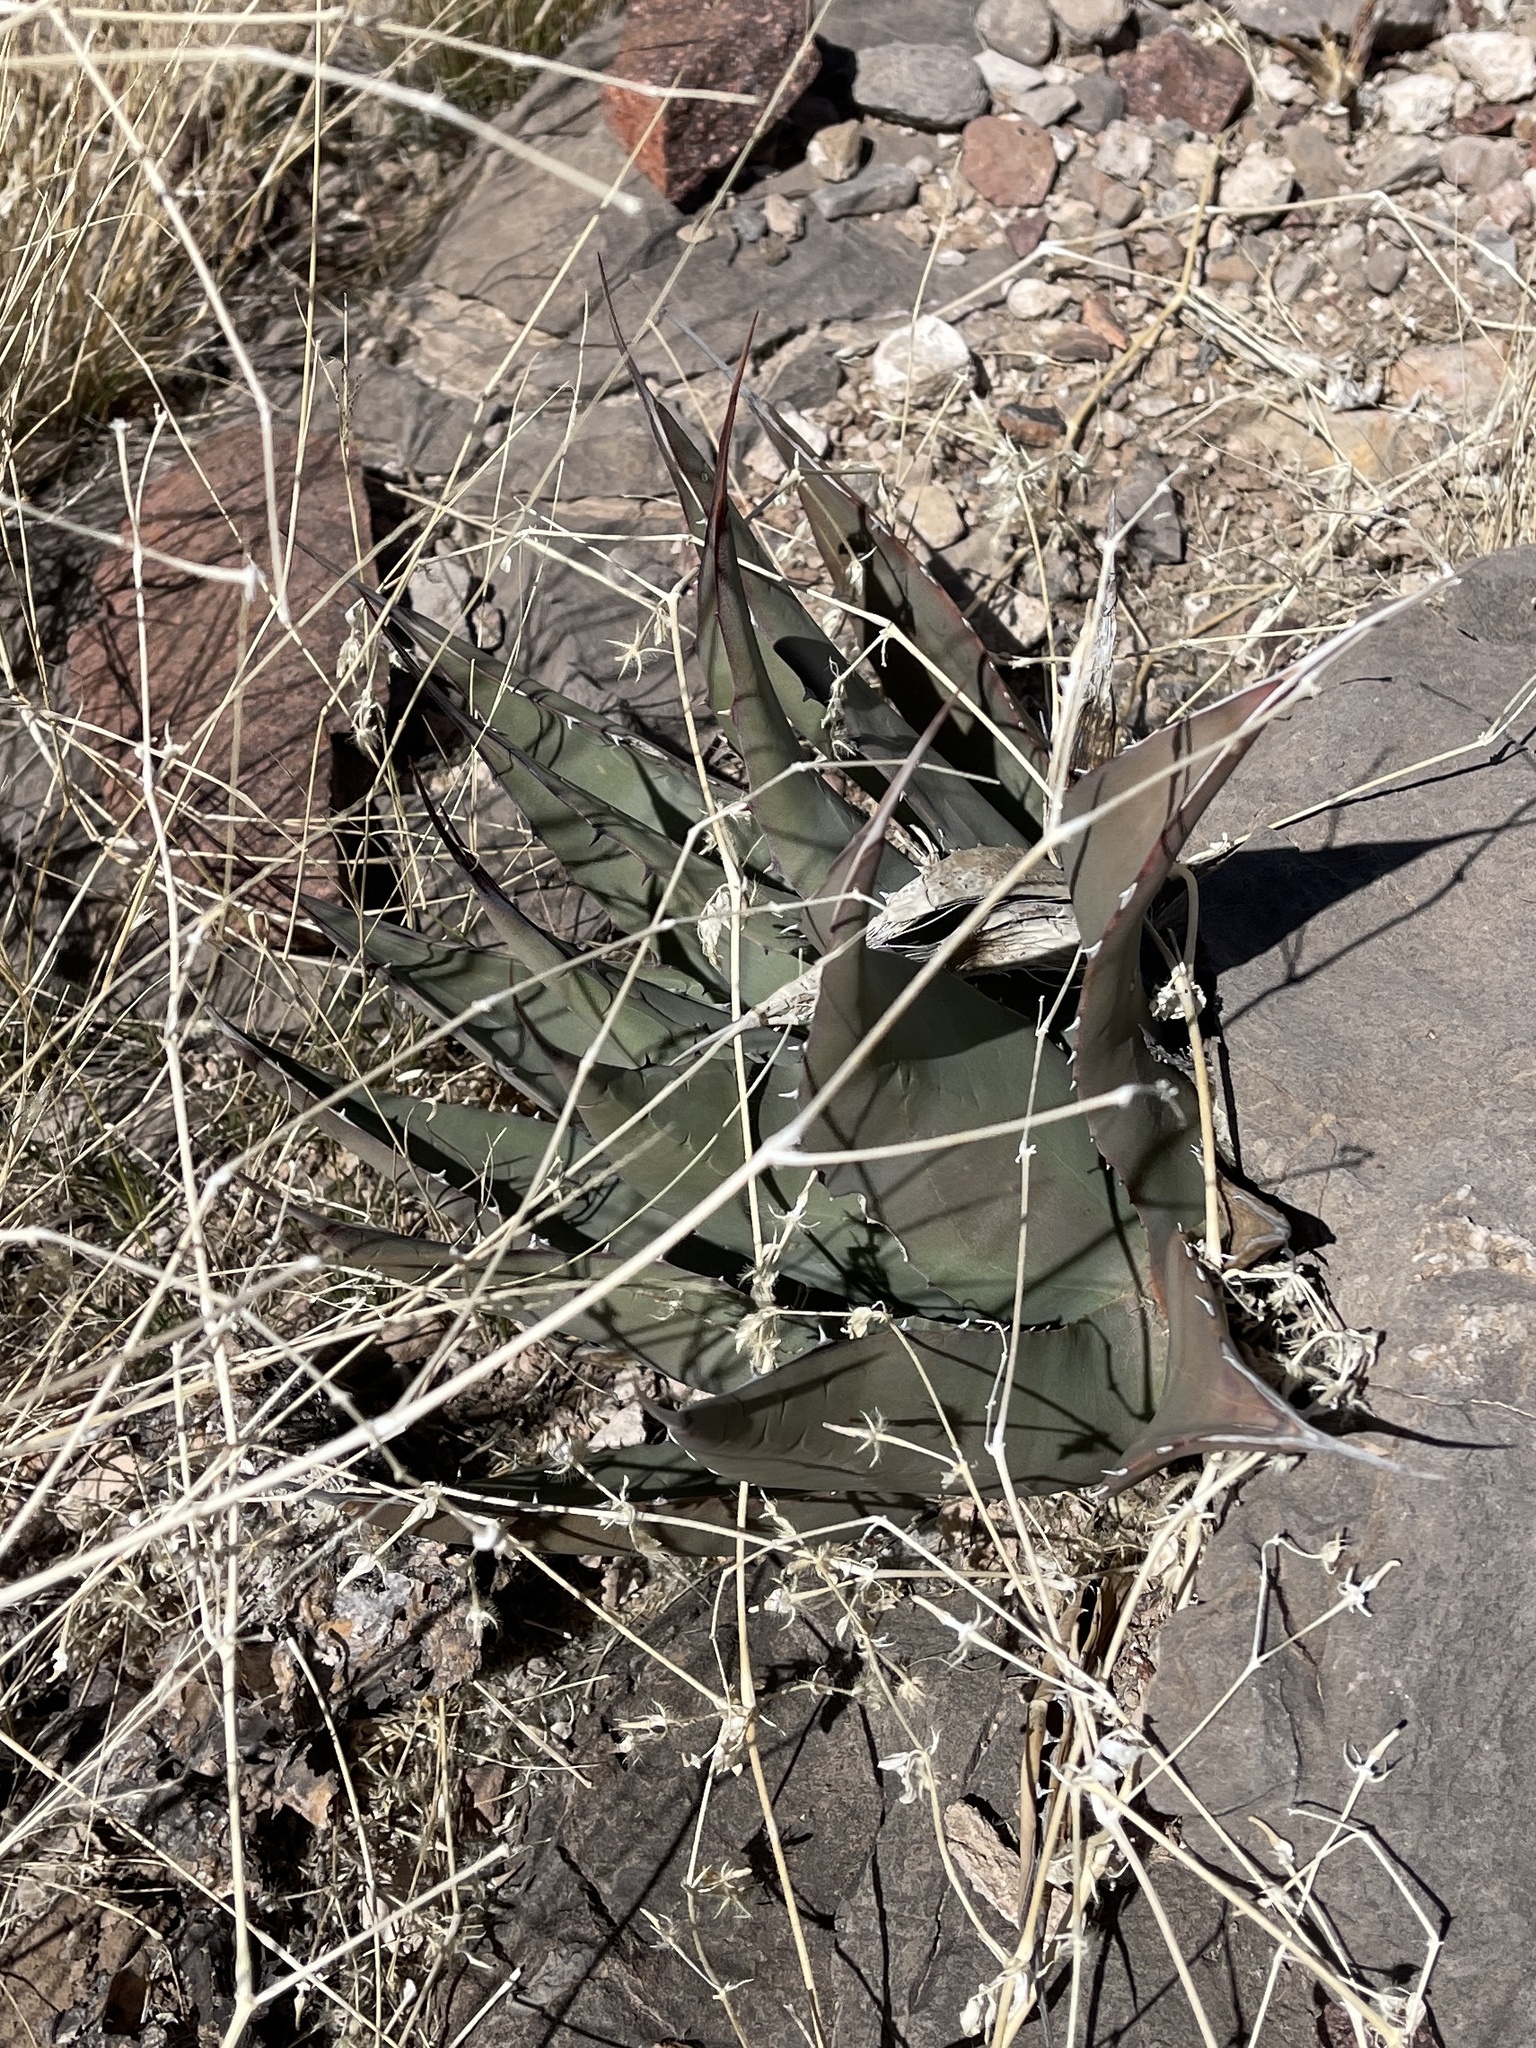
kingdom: Plantae
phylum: Tracheophyta
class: Liliopsida
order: Asparagales
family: Asparagaceae
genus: Agave
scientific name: Agave parryi
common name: Parry's agave
